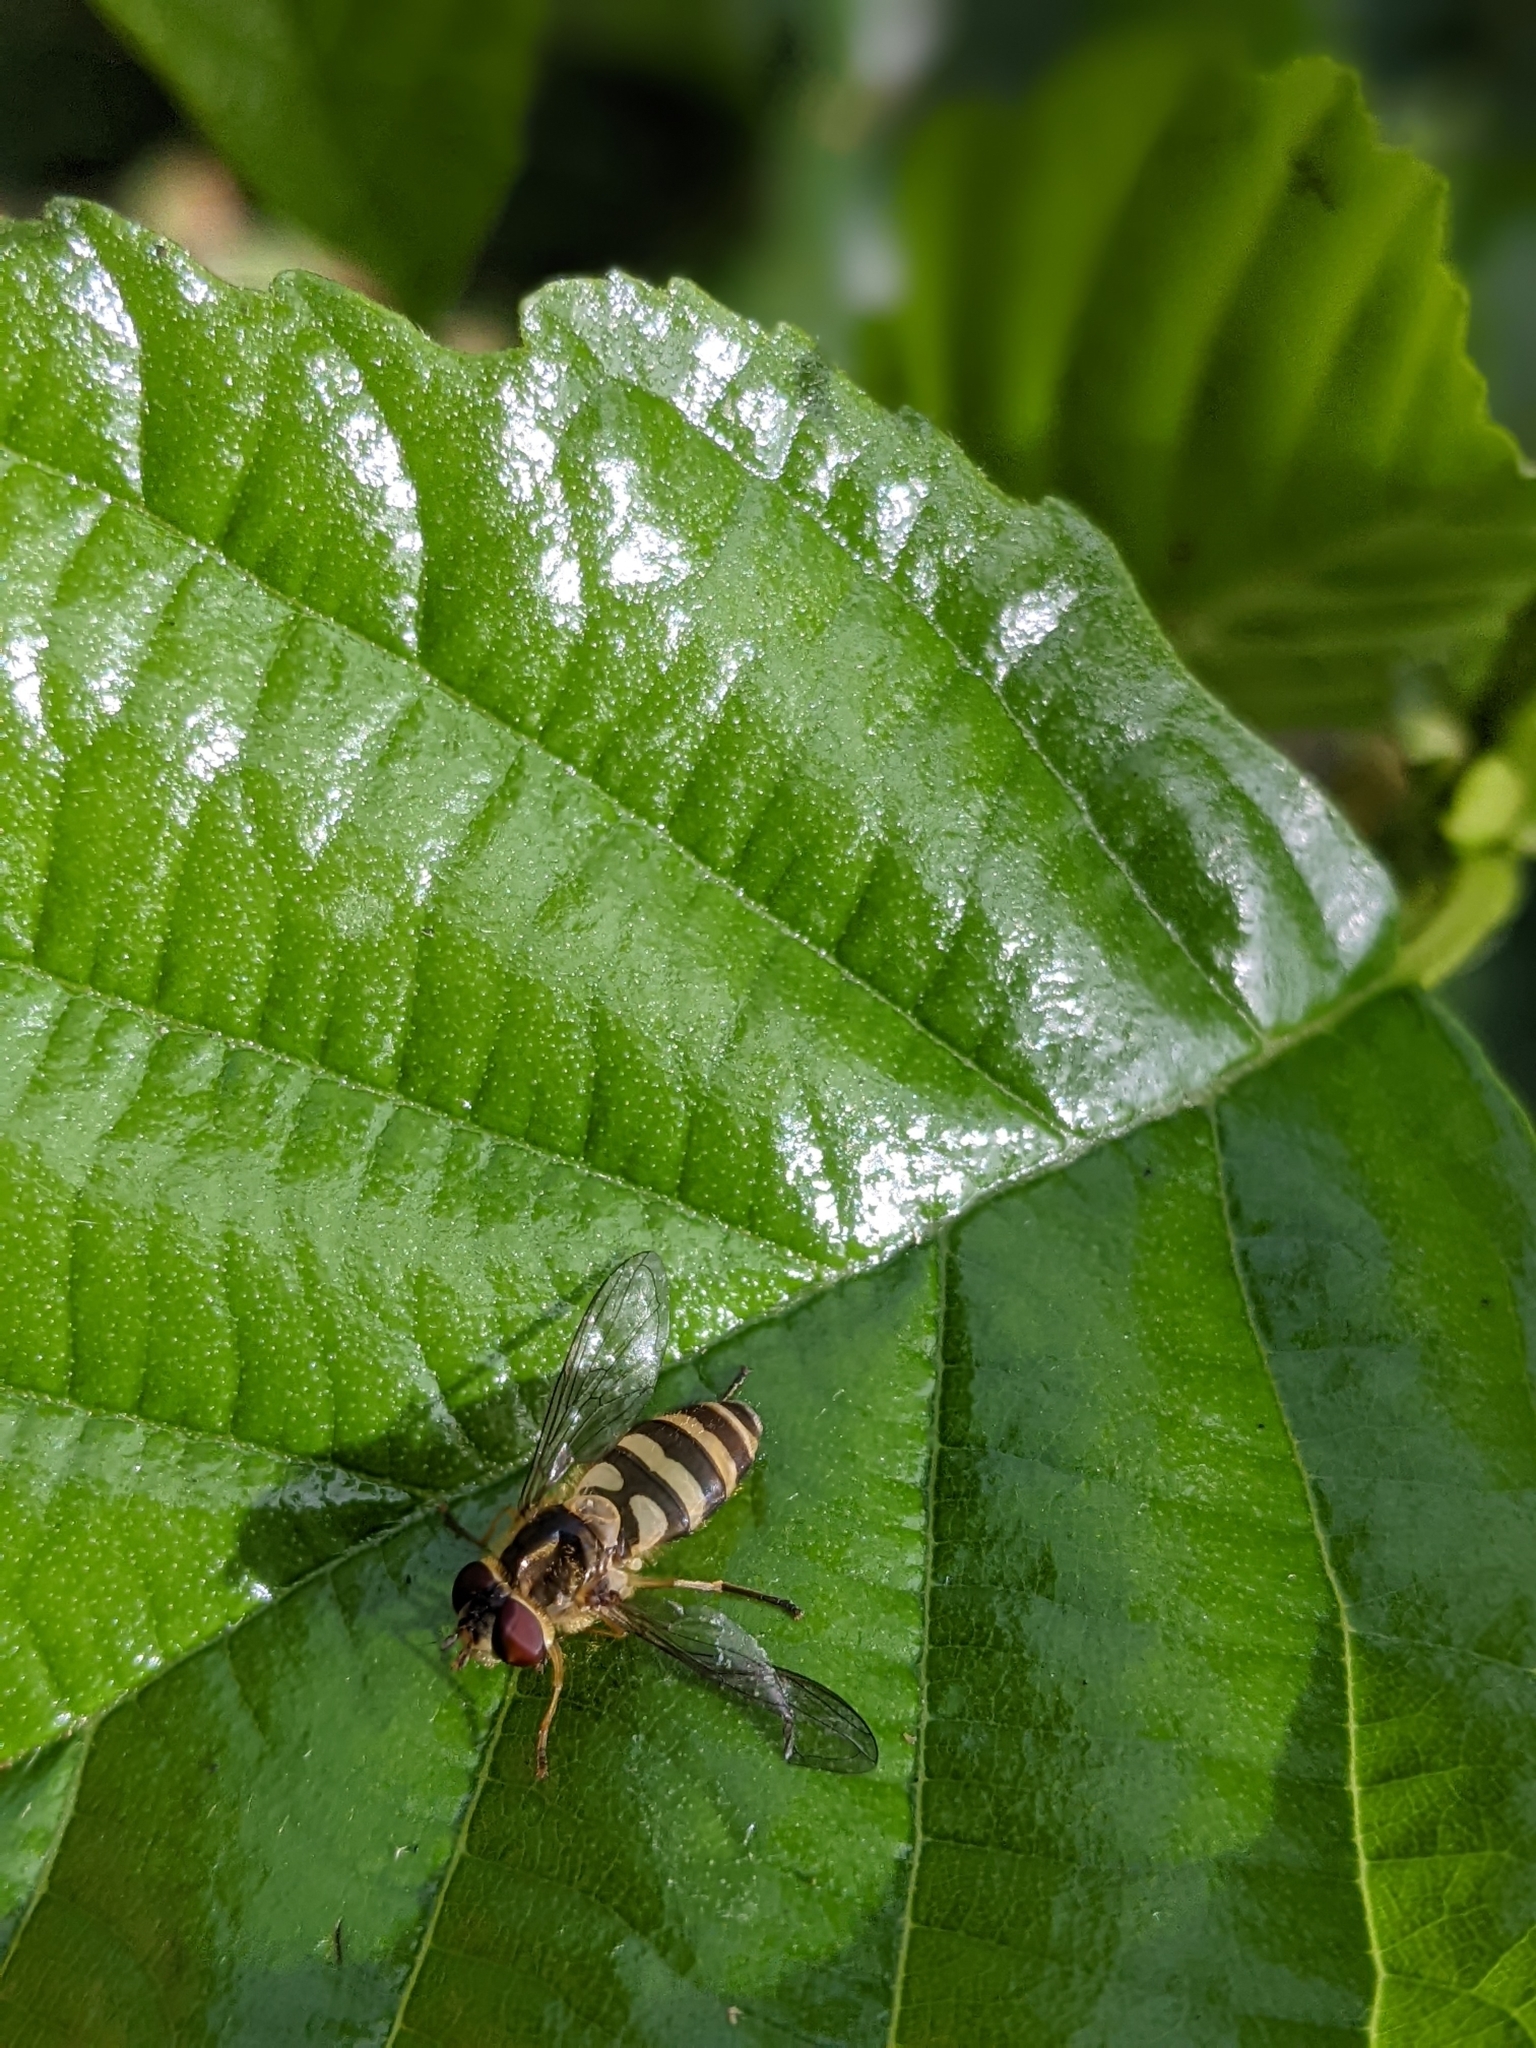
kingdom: Animalia
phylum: Arthropoda
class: Insecta
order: Diptera
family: Syrphidae
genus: Syrphus
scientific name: Syrphus ribesii
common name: Common flower fly
